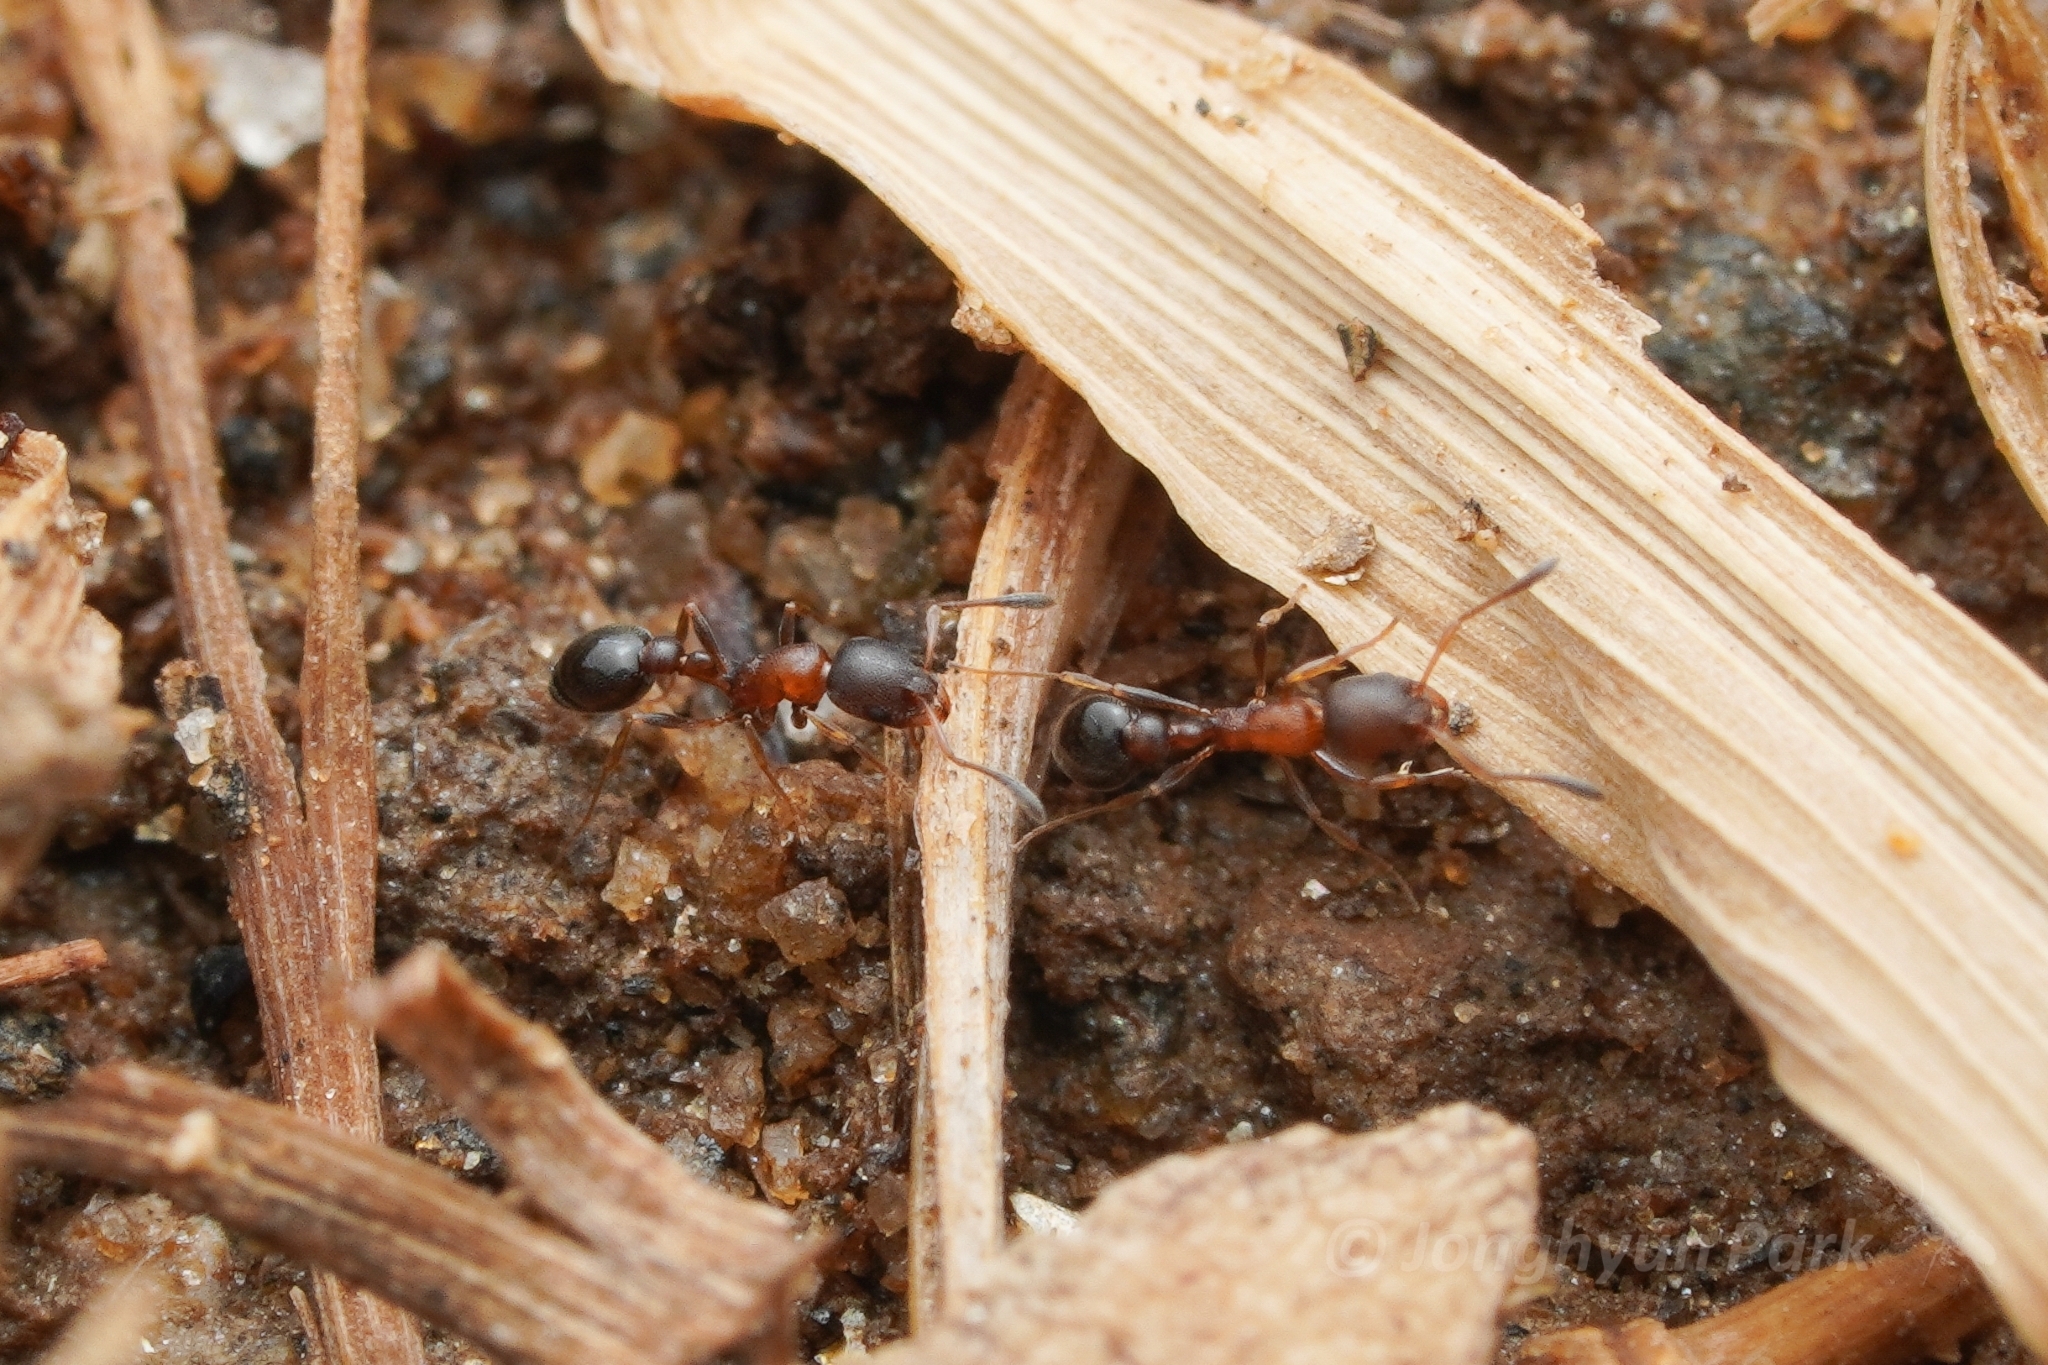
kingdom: Animalia
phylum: Arthropoda
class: Insecta
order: Hymenoptera
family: Formicidae
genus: Cardiocondyla
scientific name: Cardiocondyla mauritanica
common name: Sneaking ant
